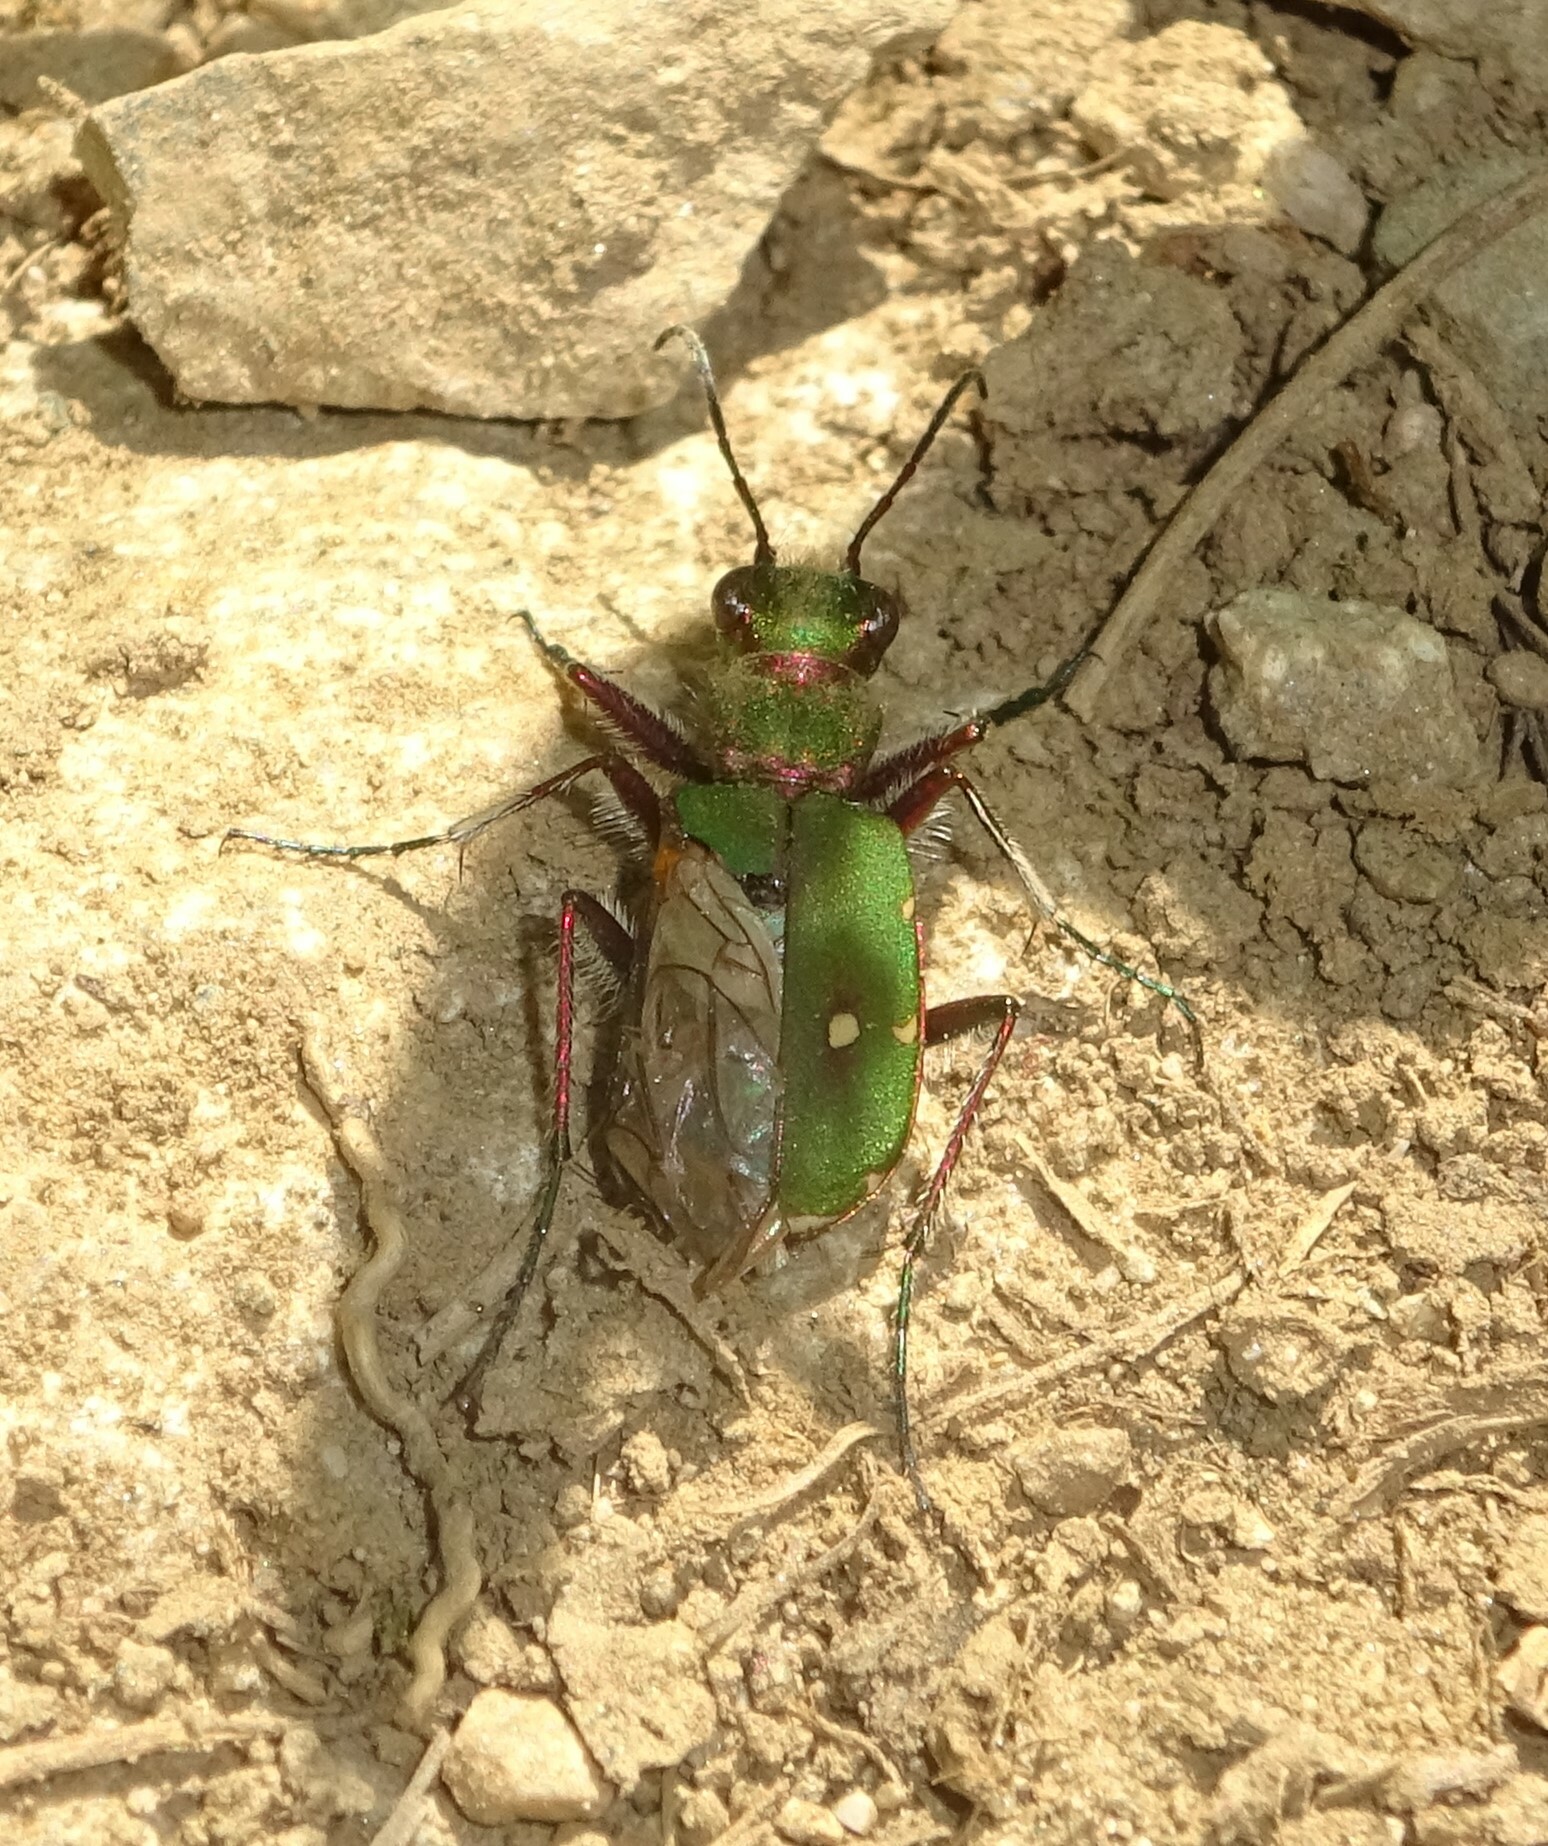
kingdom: Animalia
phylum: Arthropoda
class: Insecta
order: Coleoptera
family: Carabidae
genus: Cicindela
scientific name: Cicindela campestris
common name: Common tiger beetle
